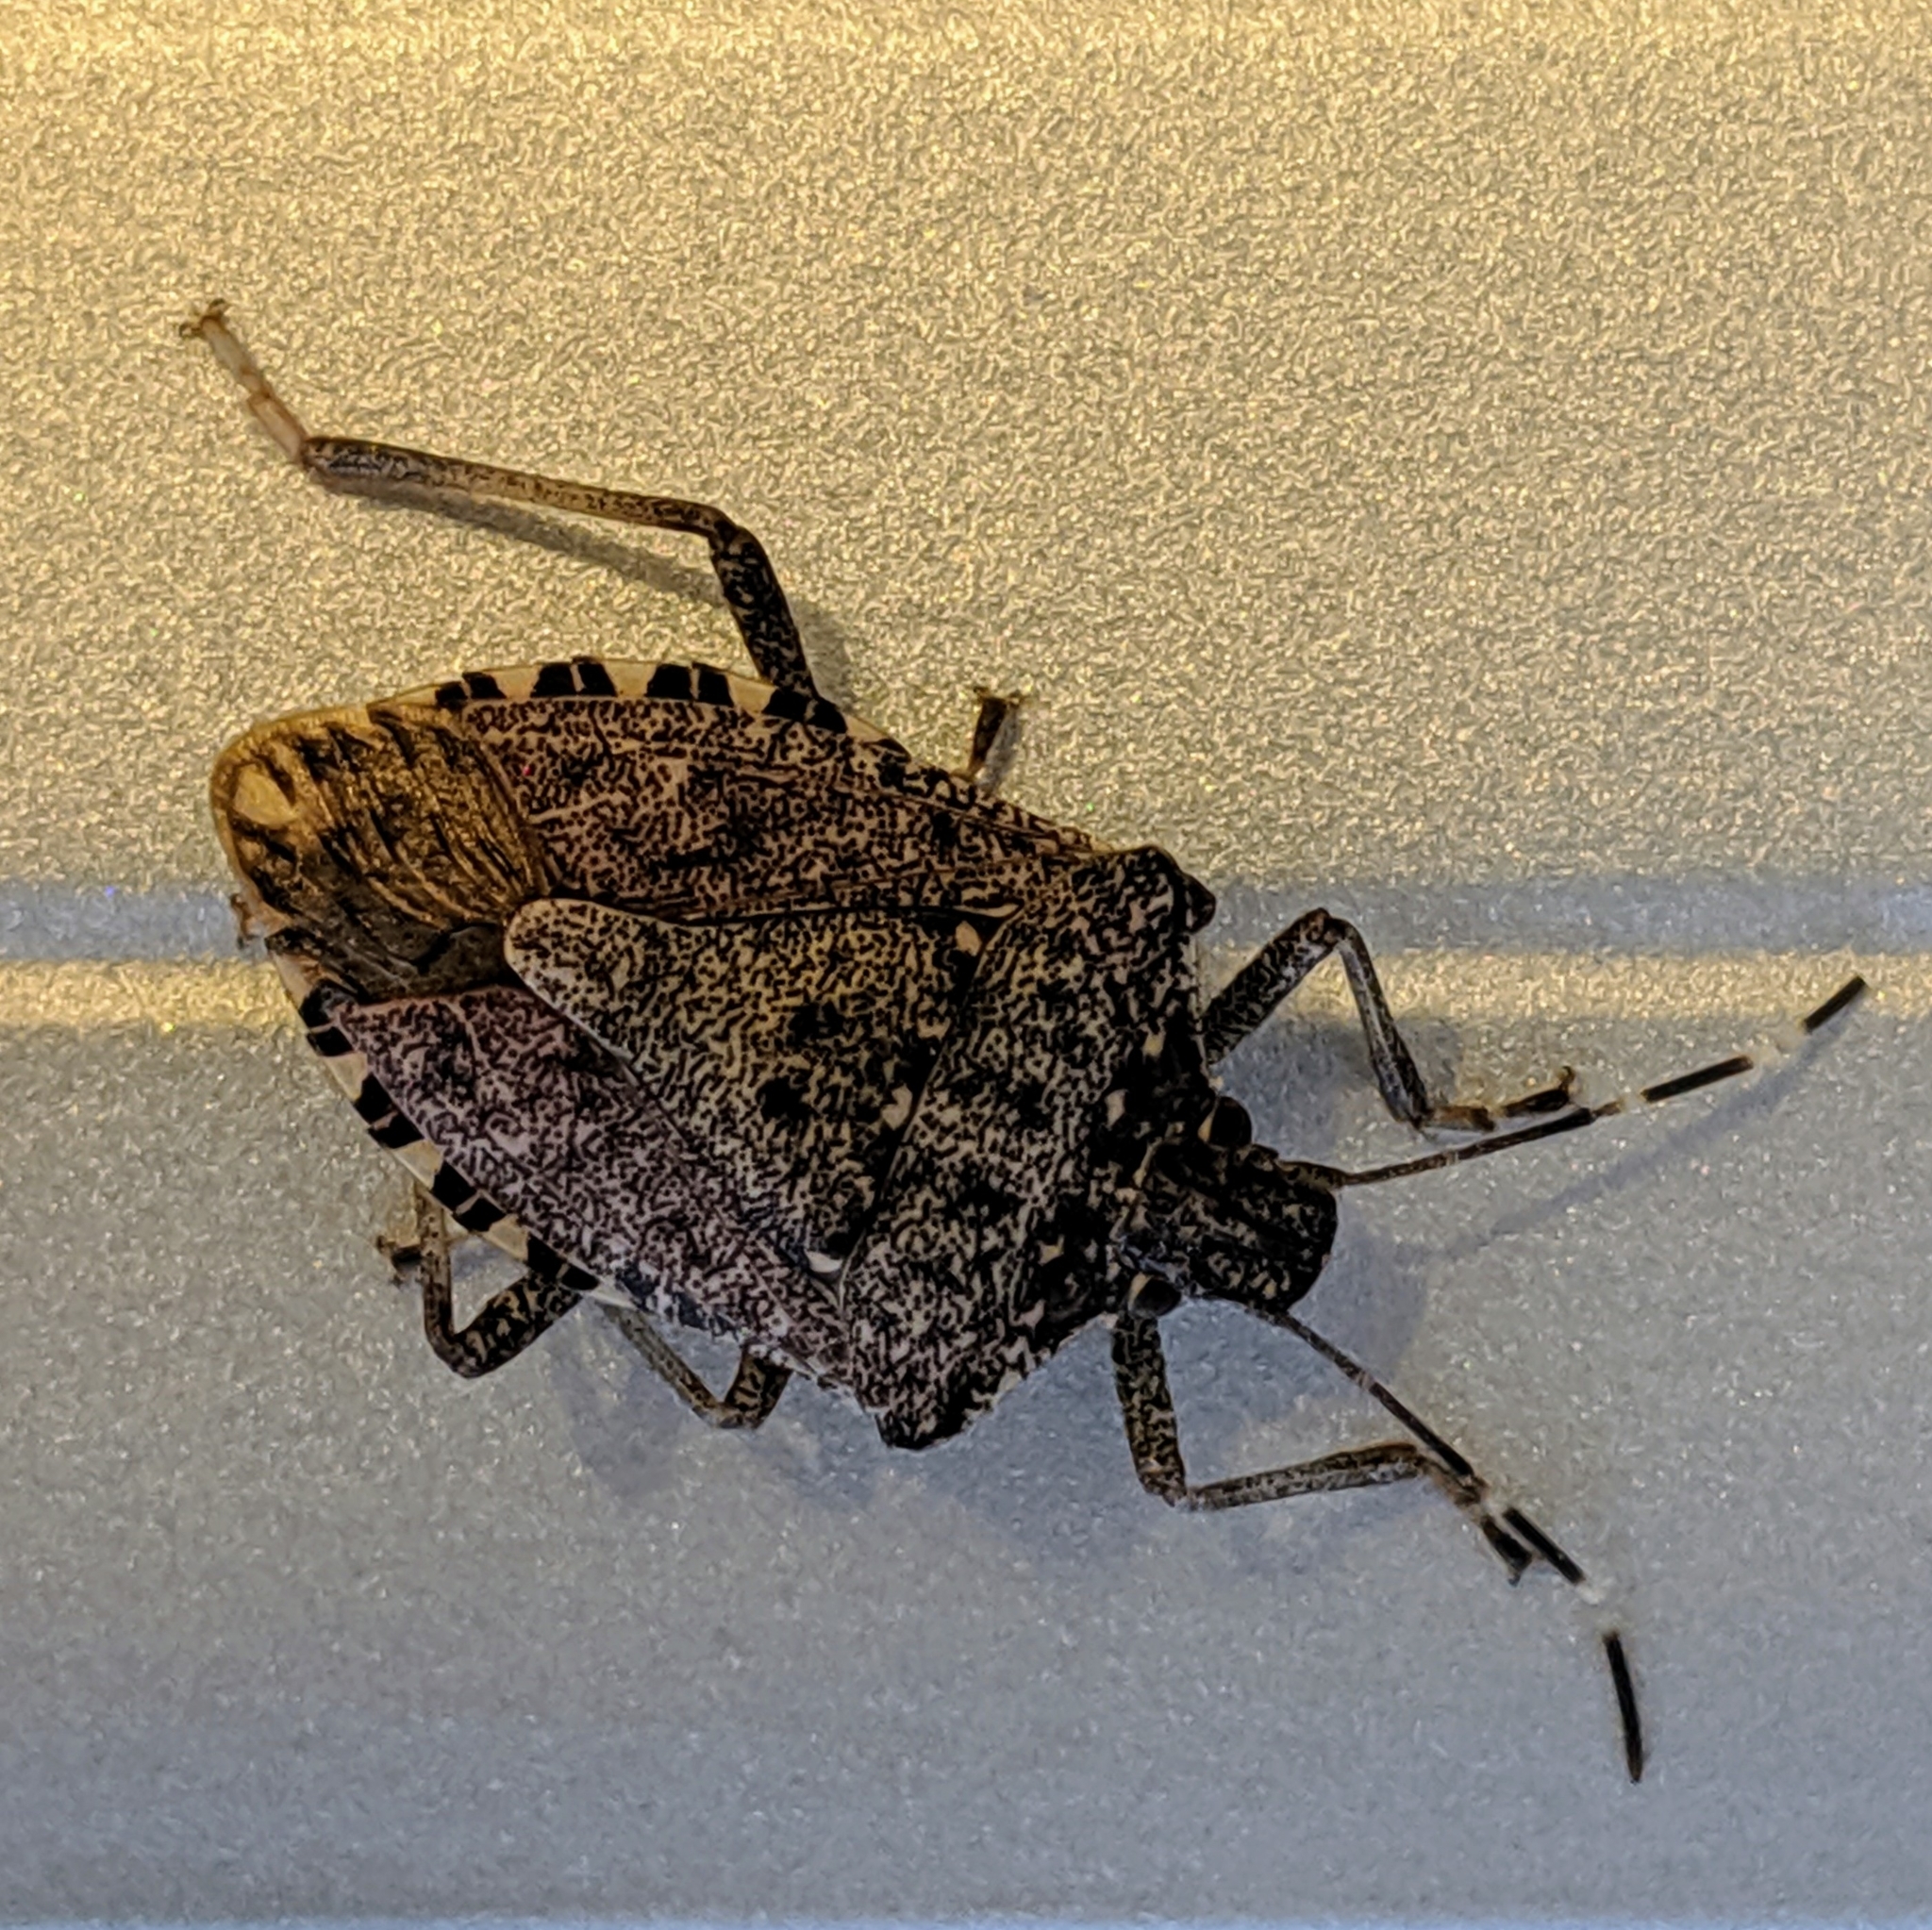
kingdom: Animalia
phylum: Arthropoda
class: Insecta
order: Hemiptera
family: Pentatomidae
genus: Halyomorpha
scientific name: Halyomorpha halys
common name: Brown marmorated stink bug
